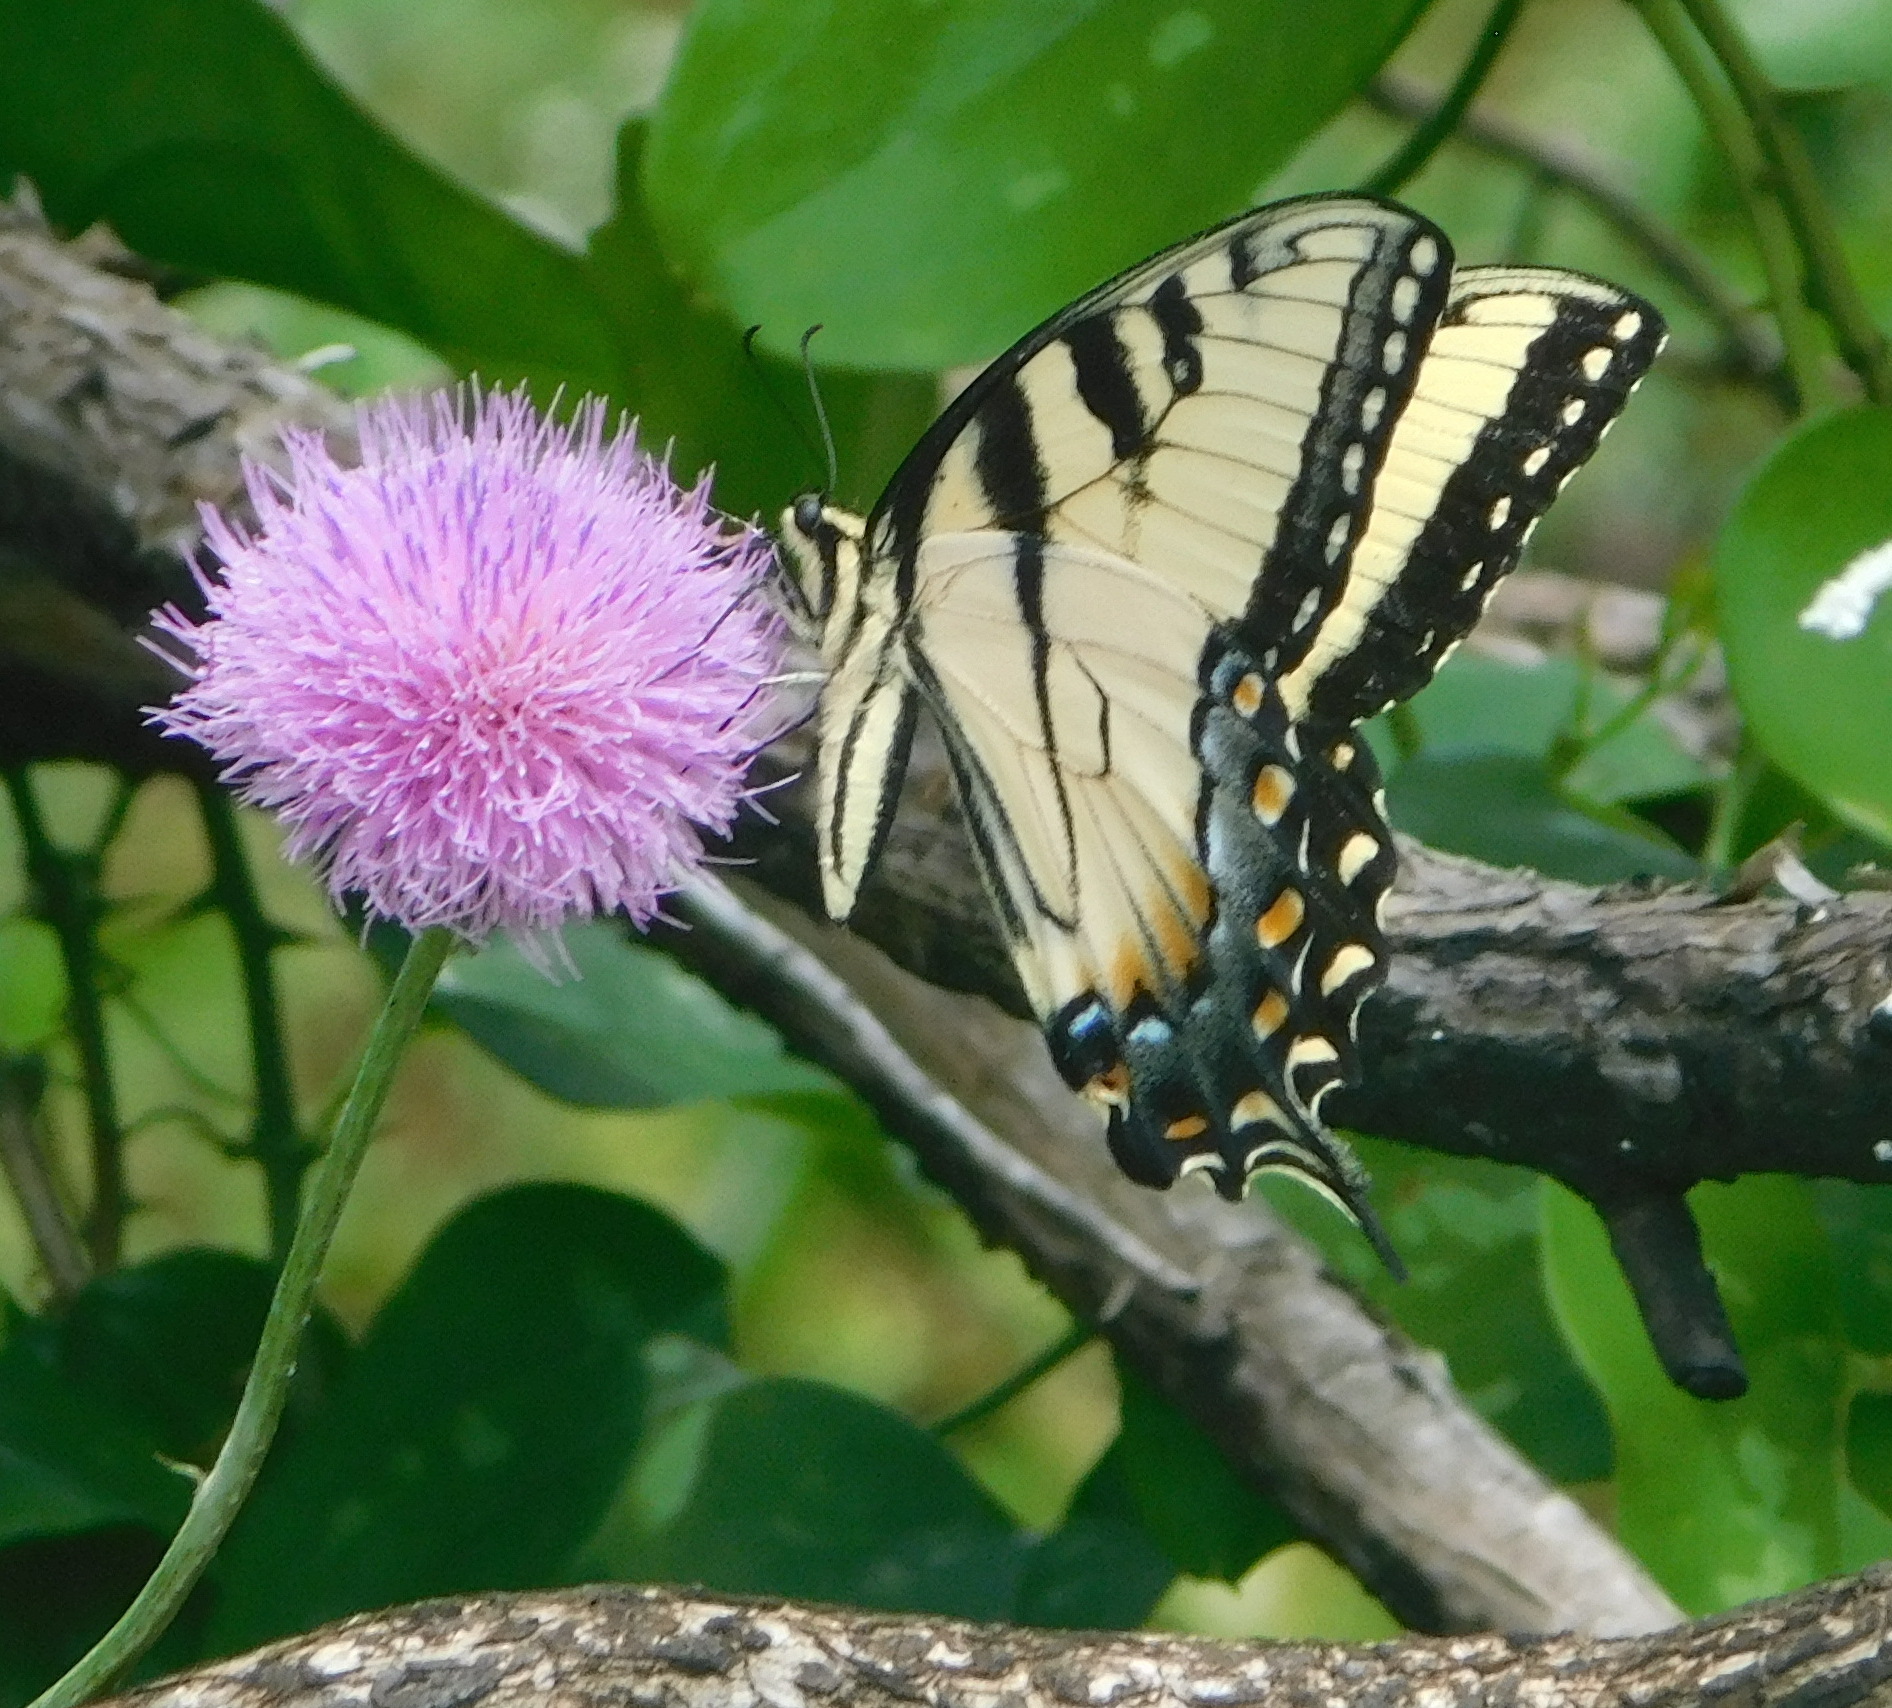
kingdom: Animalia
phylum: Arthropoda
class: Insecta
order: Lepidoptera
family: Papilionidae
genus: Papilio
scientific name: Papilio glaucus
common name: Tiger swallowtail
